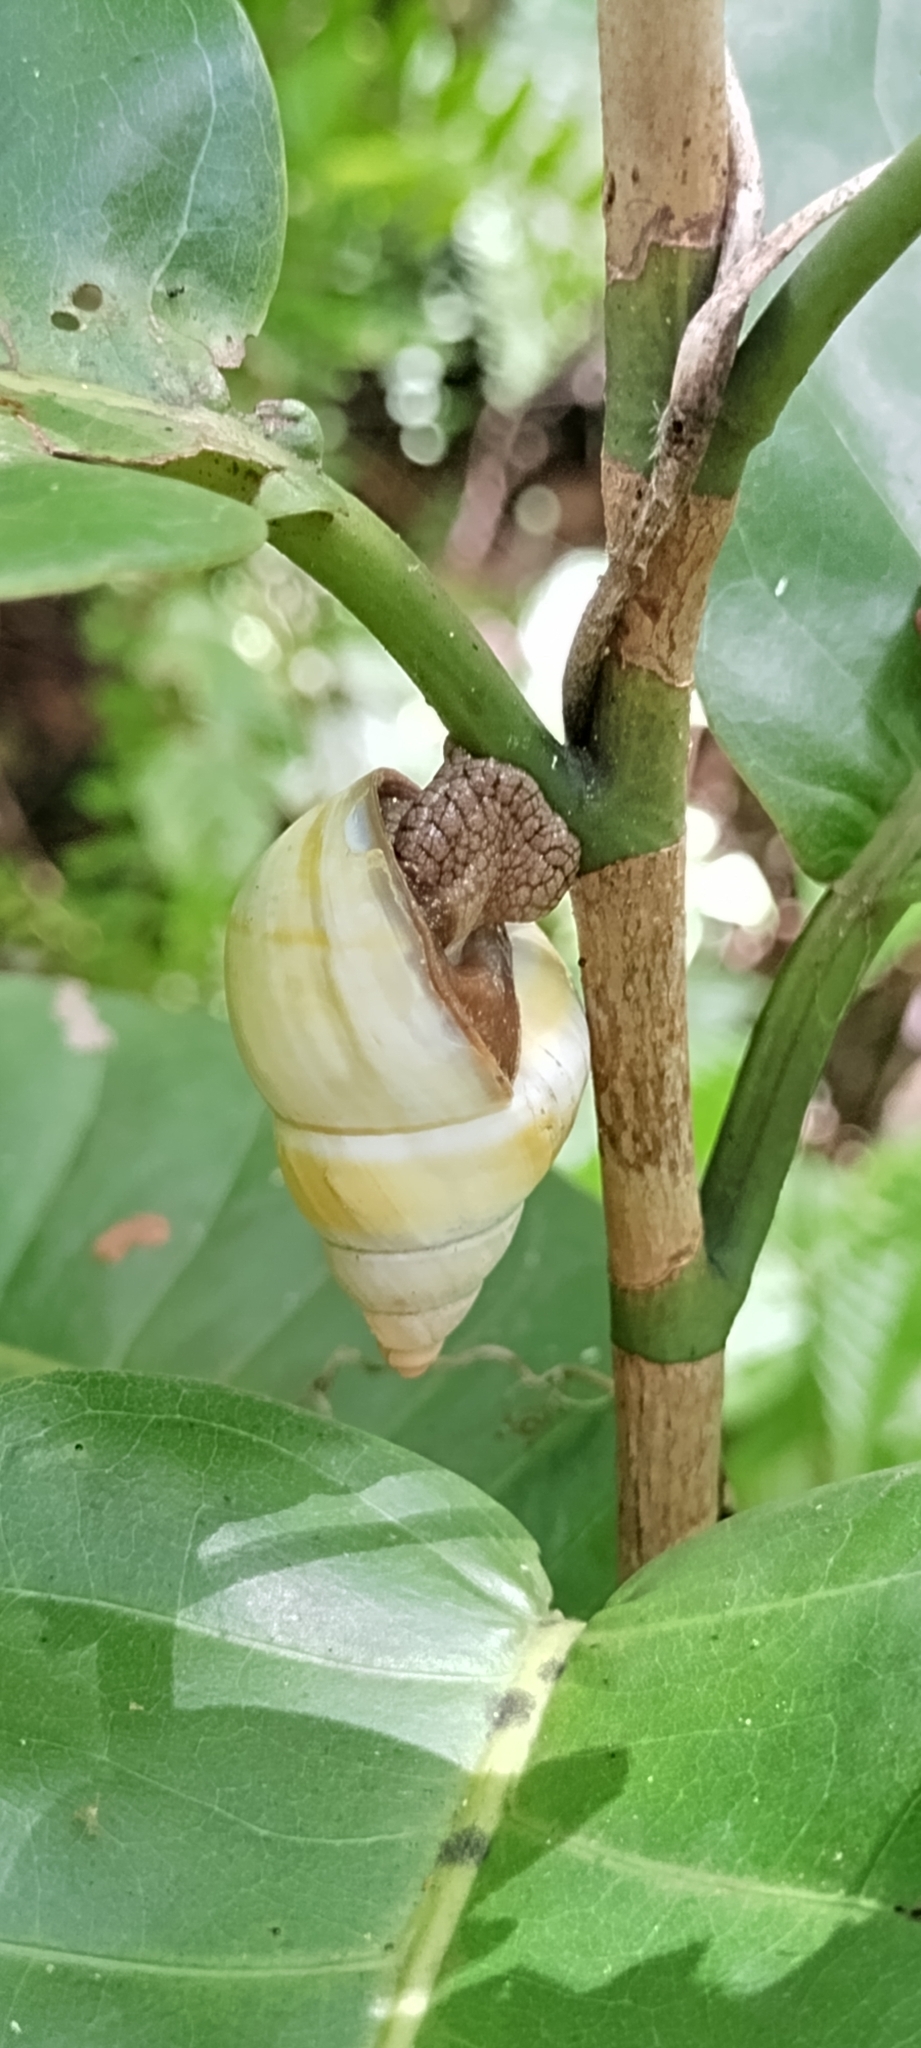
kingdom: Animalia
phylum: Mollusca
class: Gastropoda
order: Stylommatophora
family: Orthalicidae
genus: Liguus
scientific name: Liguus fasciatus
